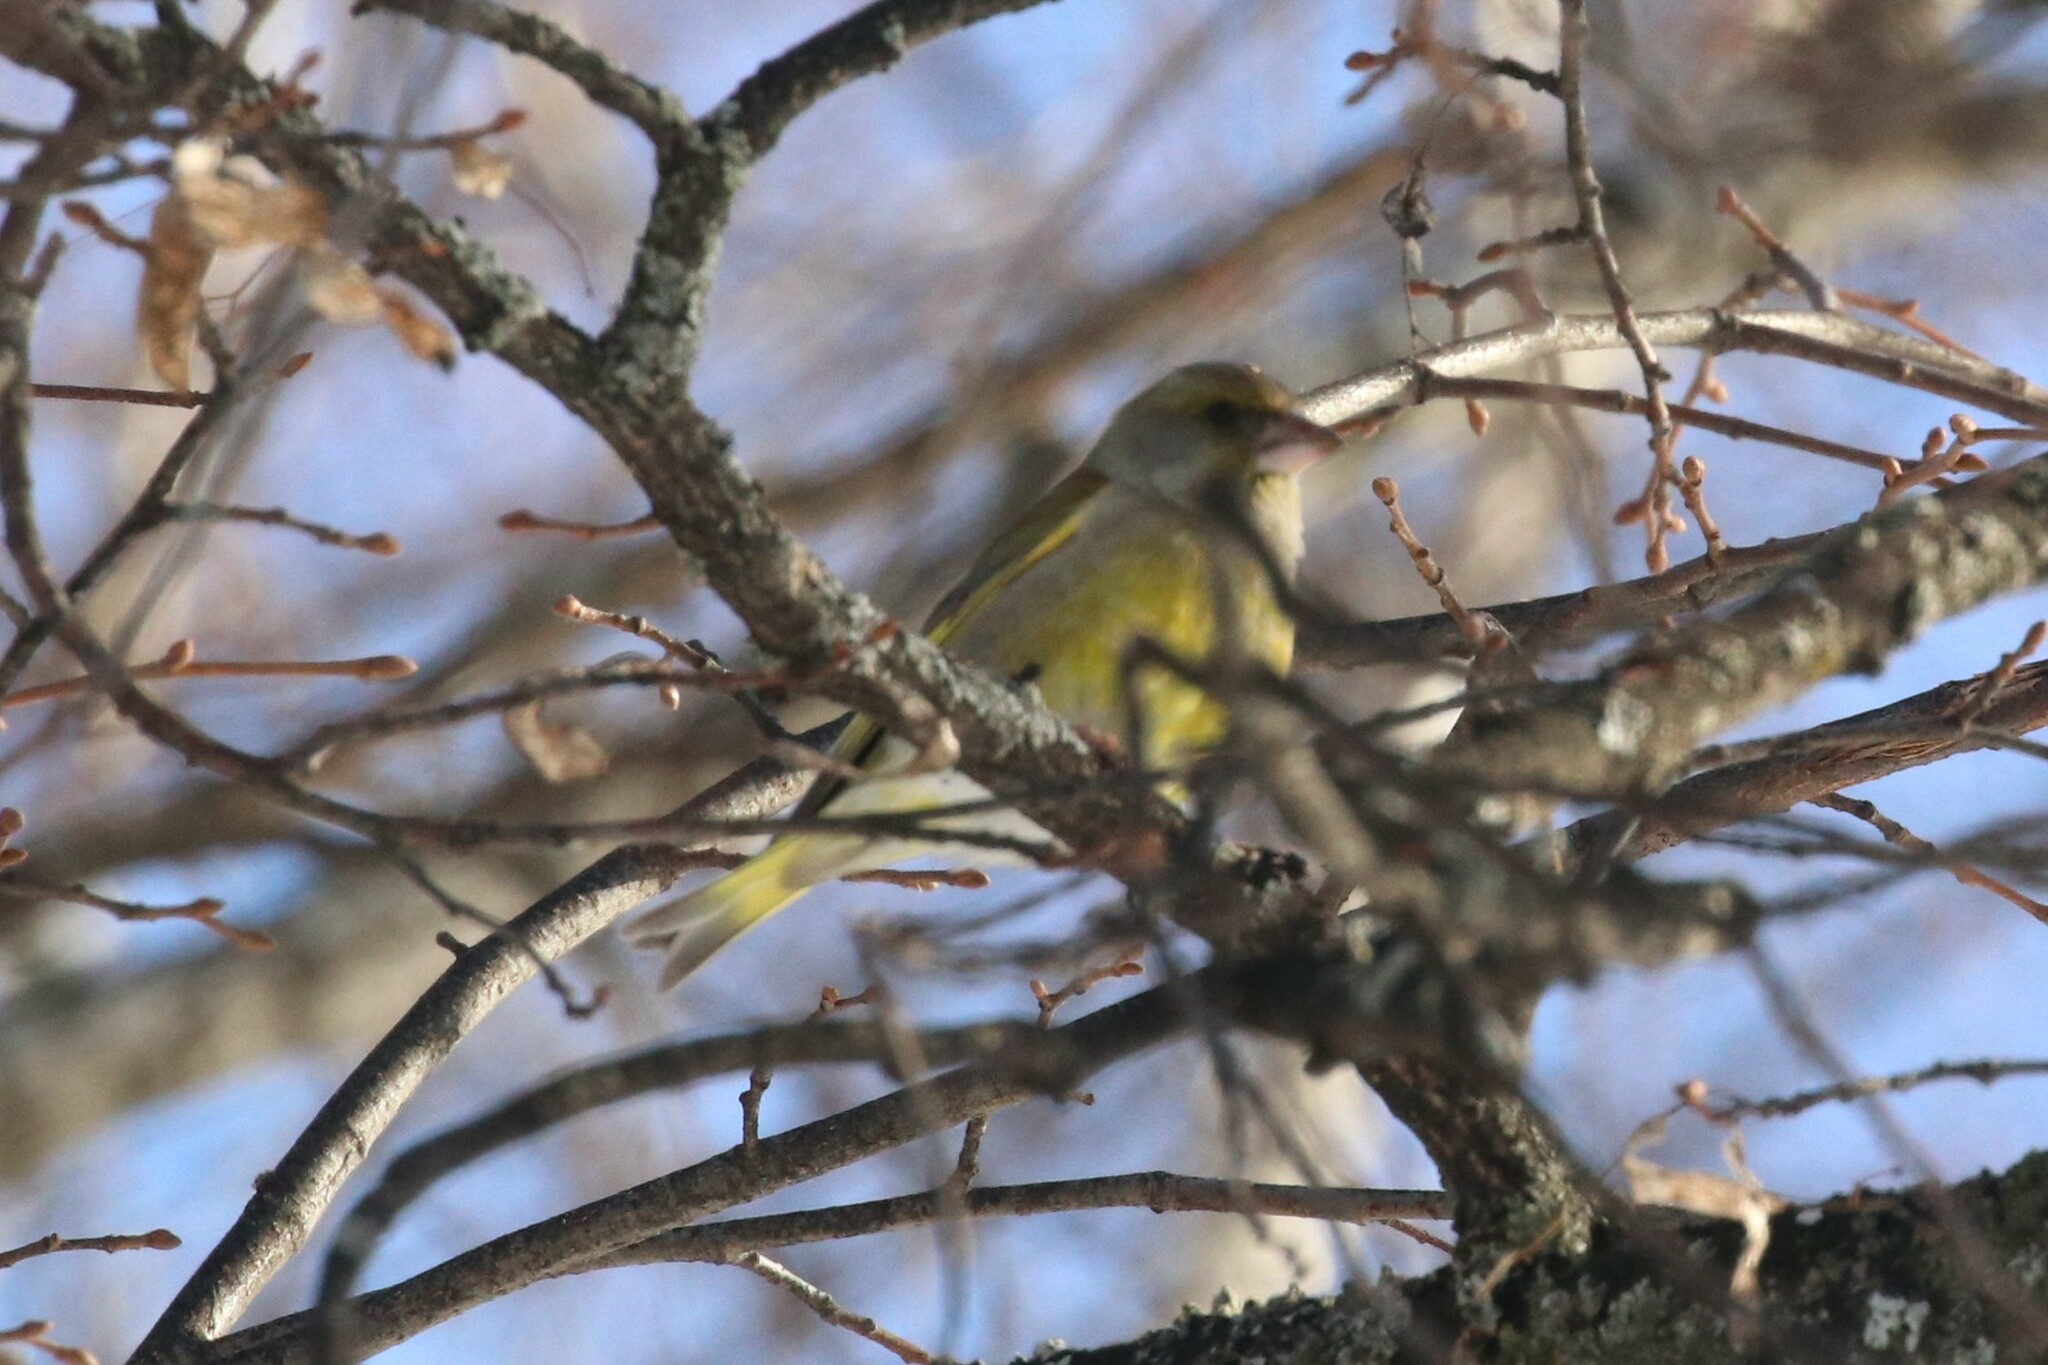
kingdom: Plantae
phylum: Tracheophyta
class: Liliopsida
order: Poales
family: Poaceae
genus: Chloris
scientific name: Chloris chloris
